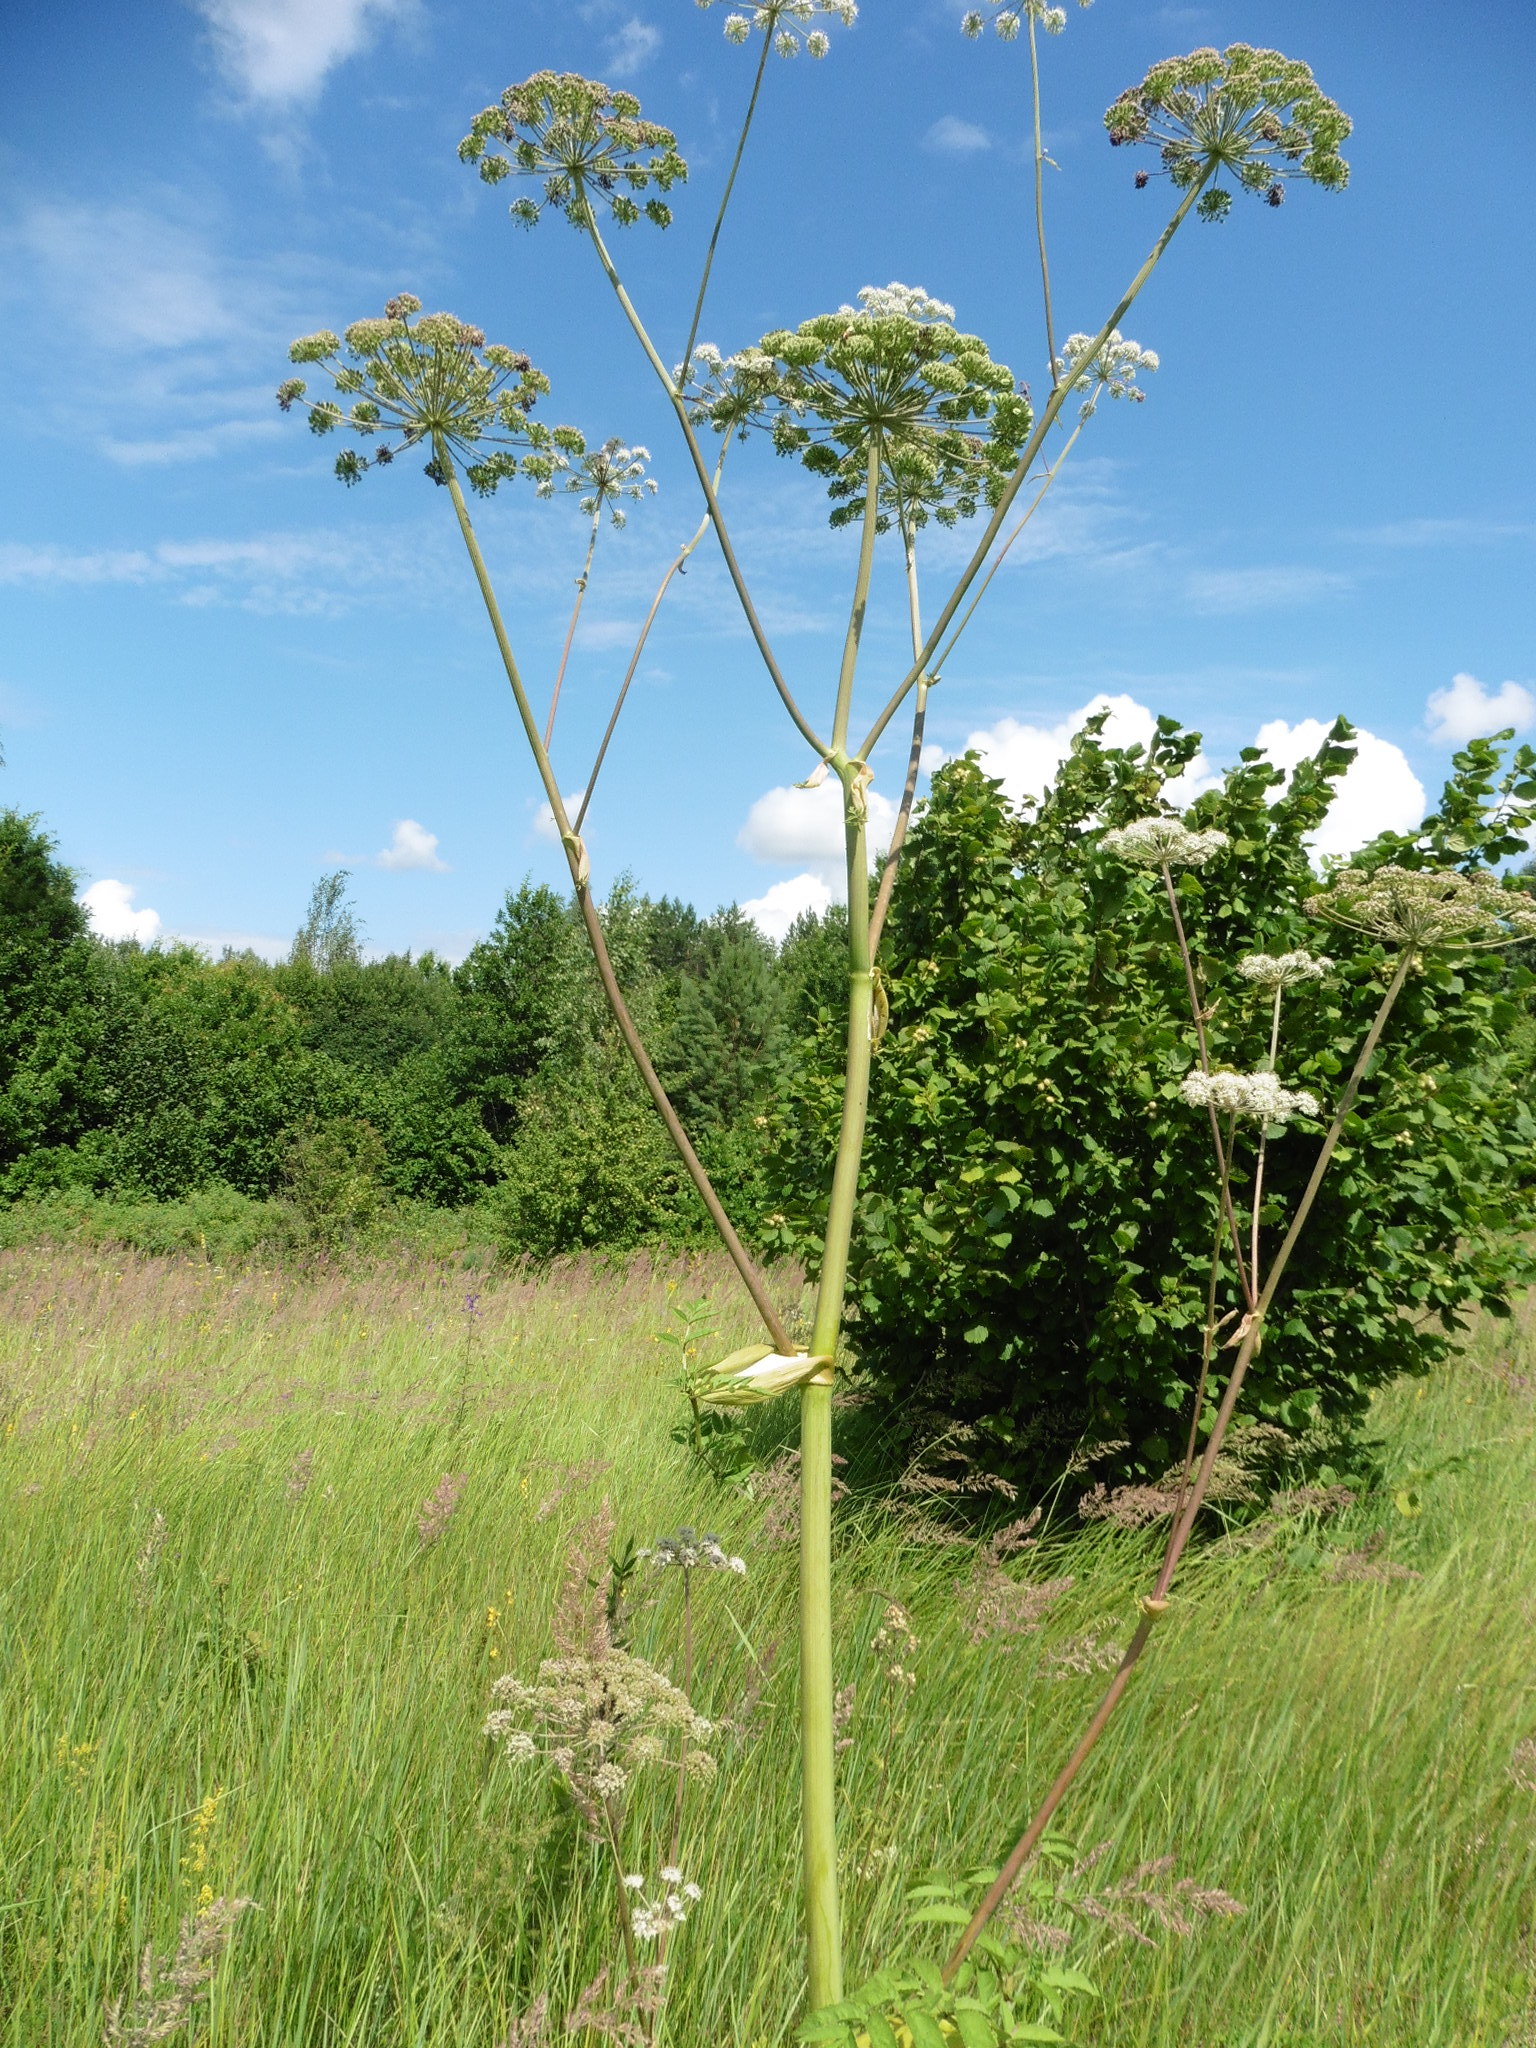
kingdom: Plantae
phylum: Tracheophyta
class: Magnoliopsida
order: Apiales
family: Apiaceae
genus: Angelica
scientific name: Angelica sylvestris
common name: Wild angelica
